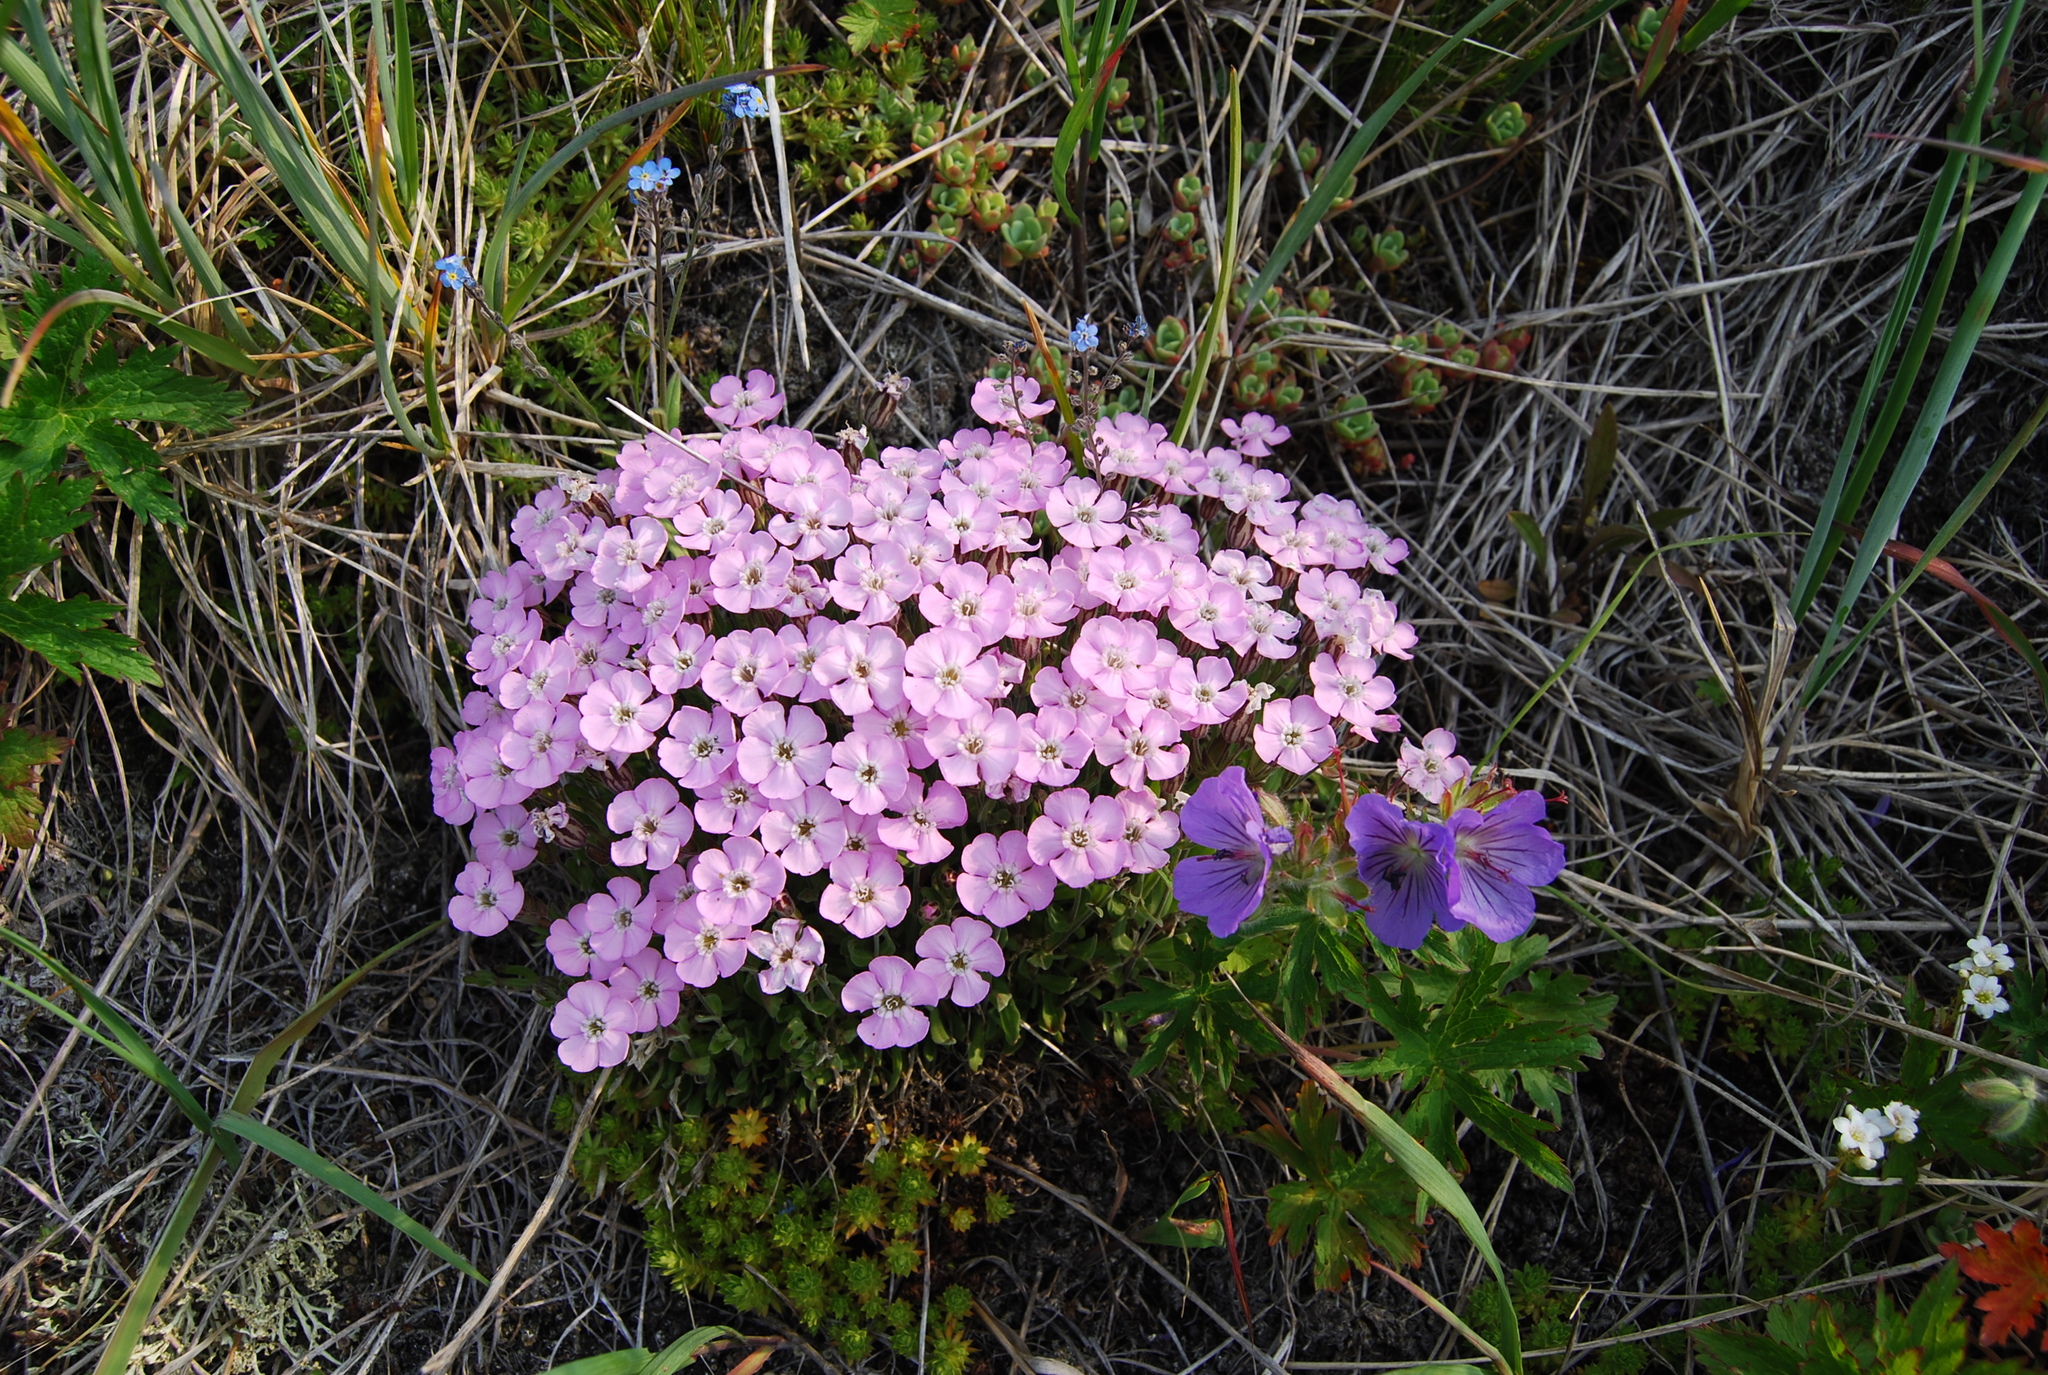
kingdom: Plantae
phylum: Tracheophyta
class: Magnoliopsida
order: Caryophyllales
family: Caryophyllaceae
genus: Silene
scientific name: Silene ajanensis
